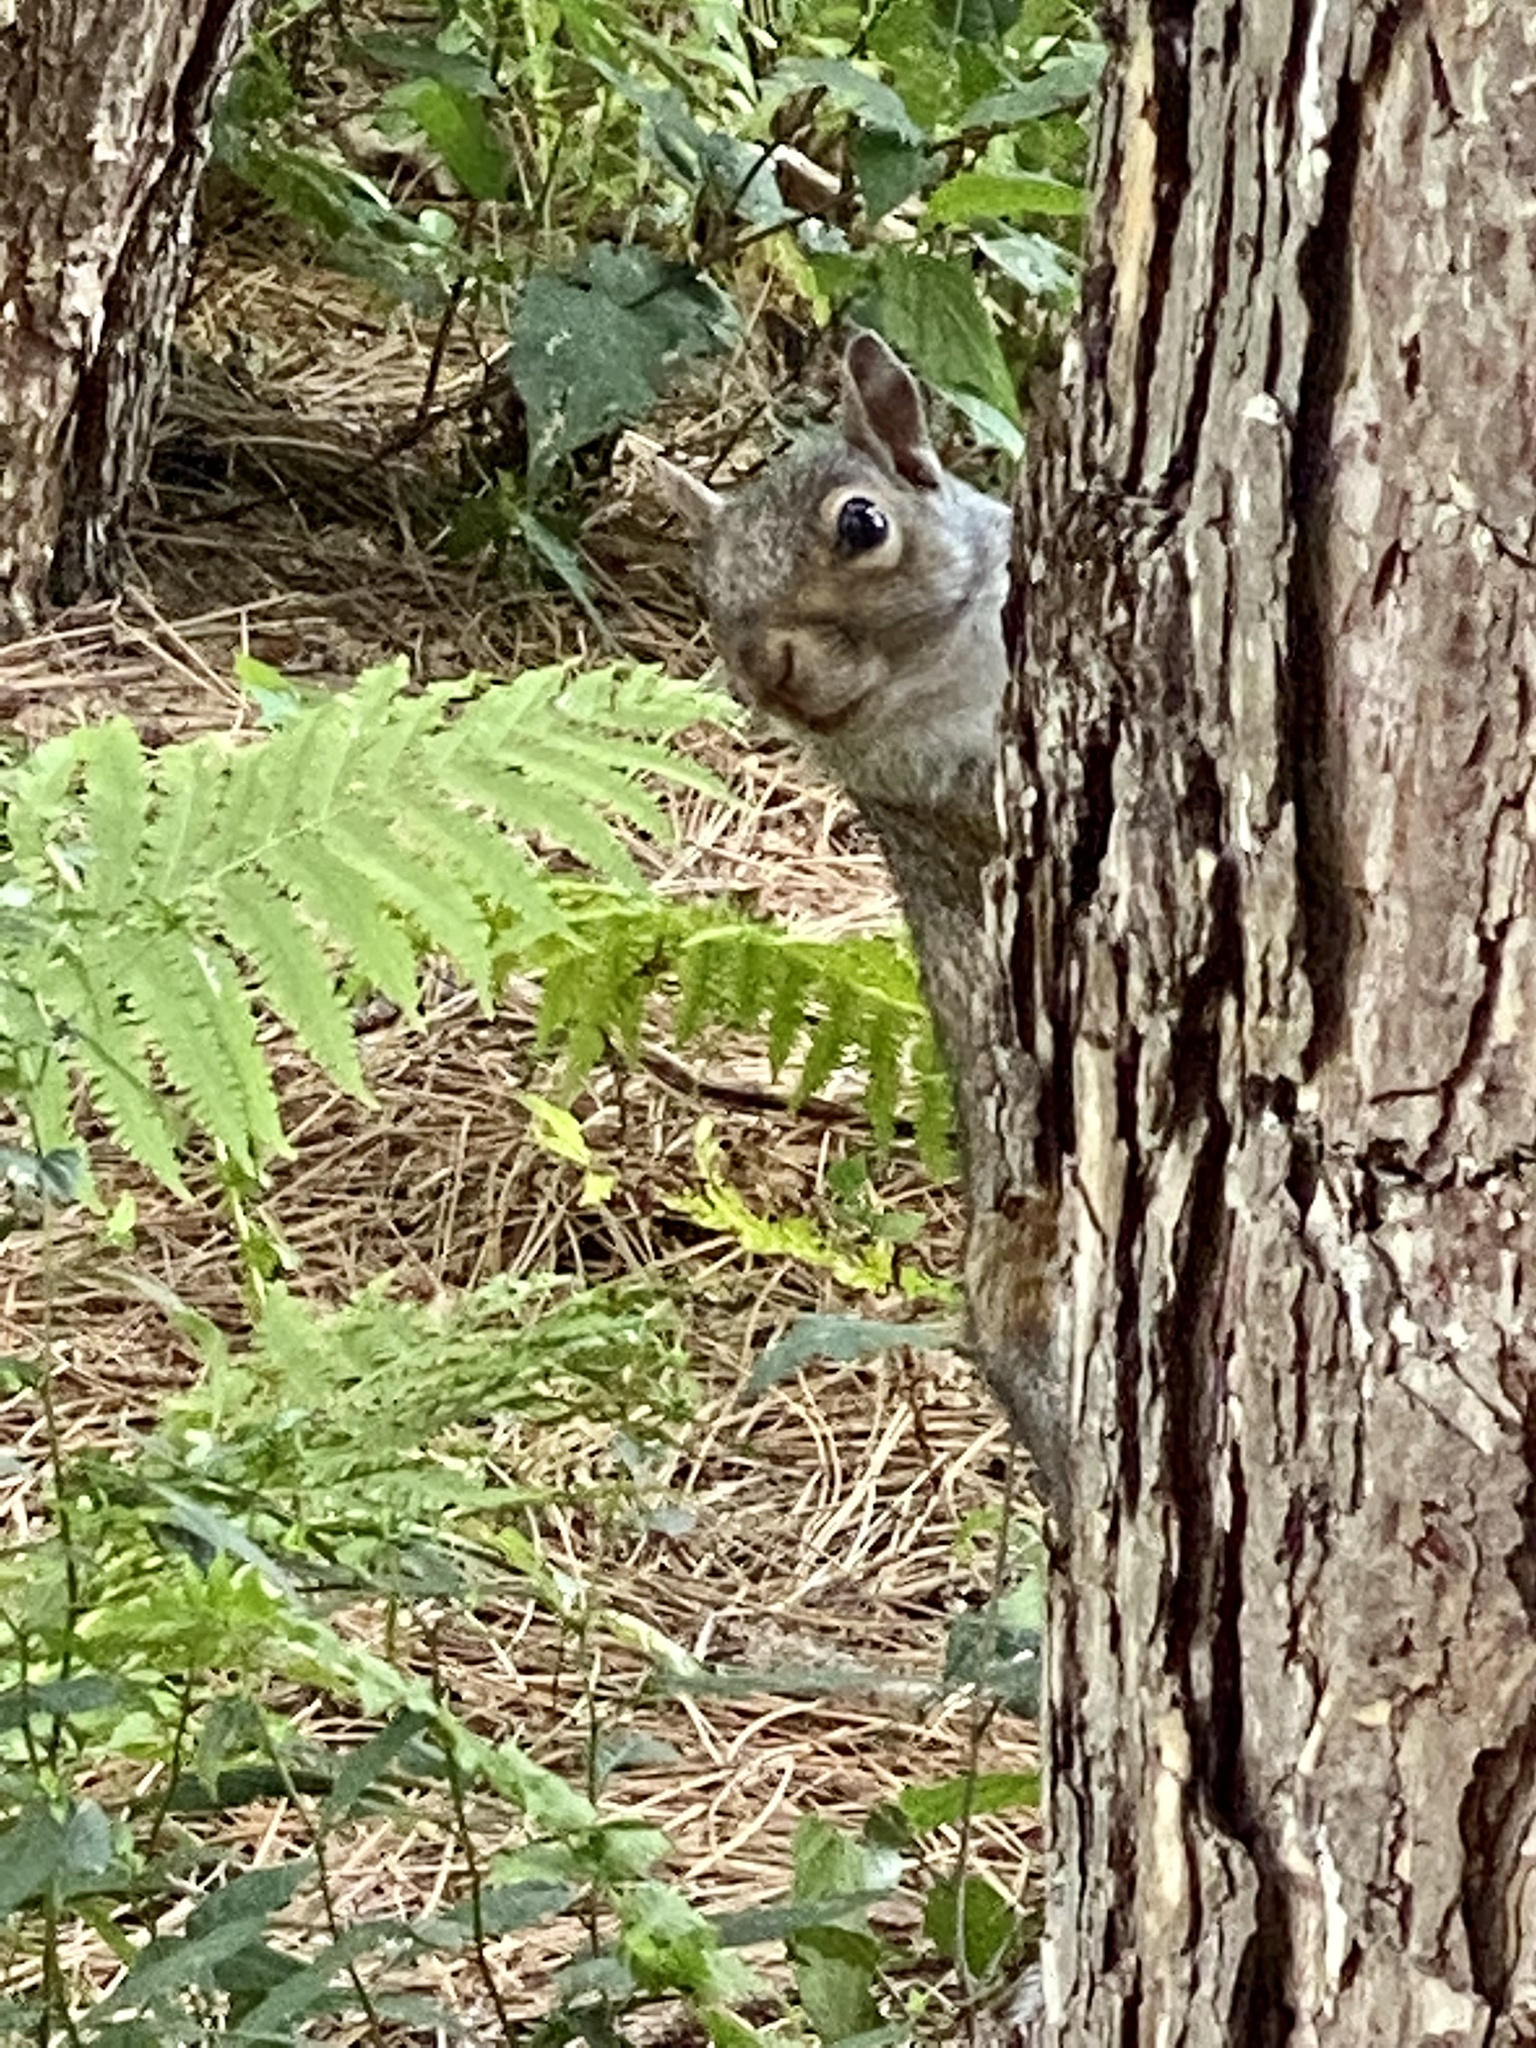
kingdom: Animalia
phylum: Chordata
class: Mammalia
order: Rodentia
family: Sciuridae
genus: Sciurus
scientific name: Sciurus carolinensis
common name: Eastern gray squirrel
